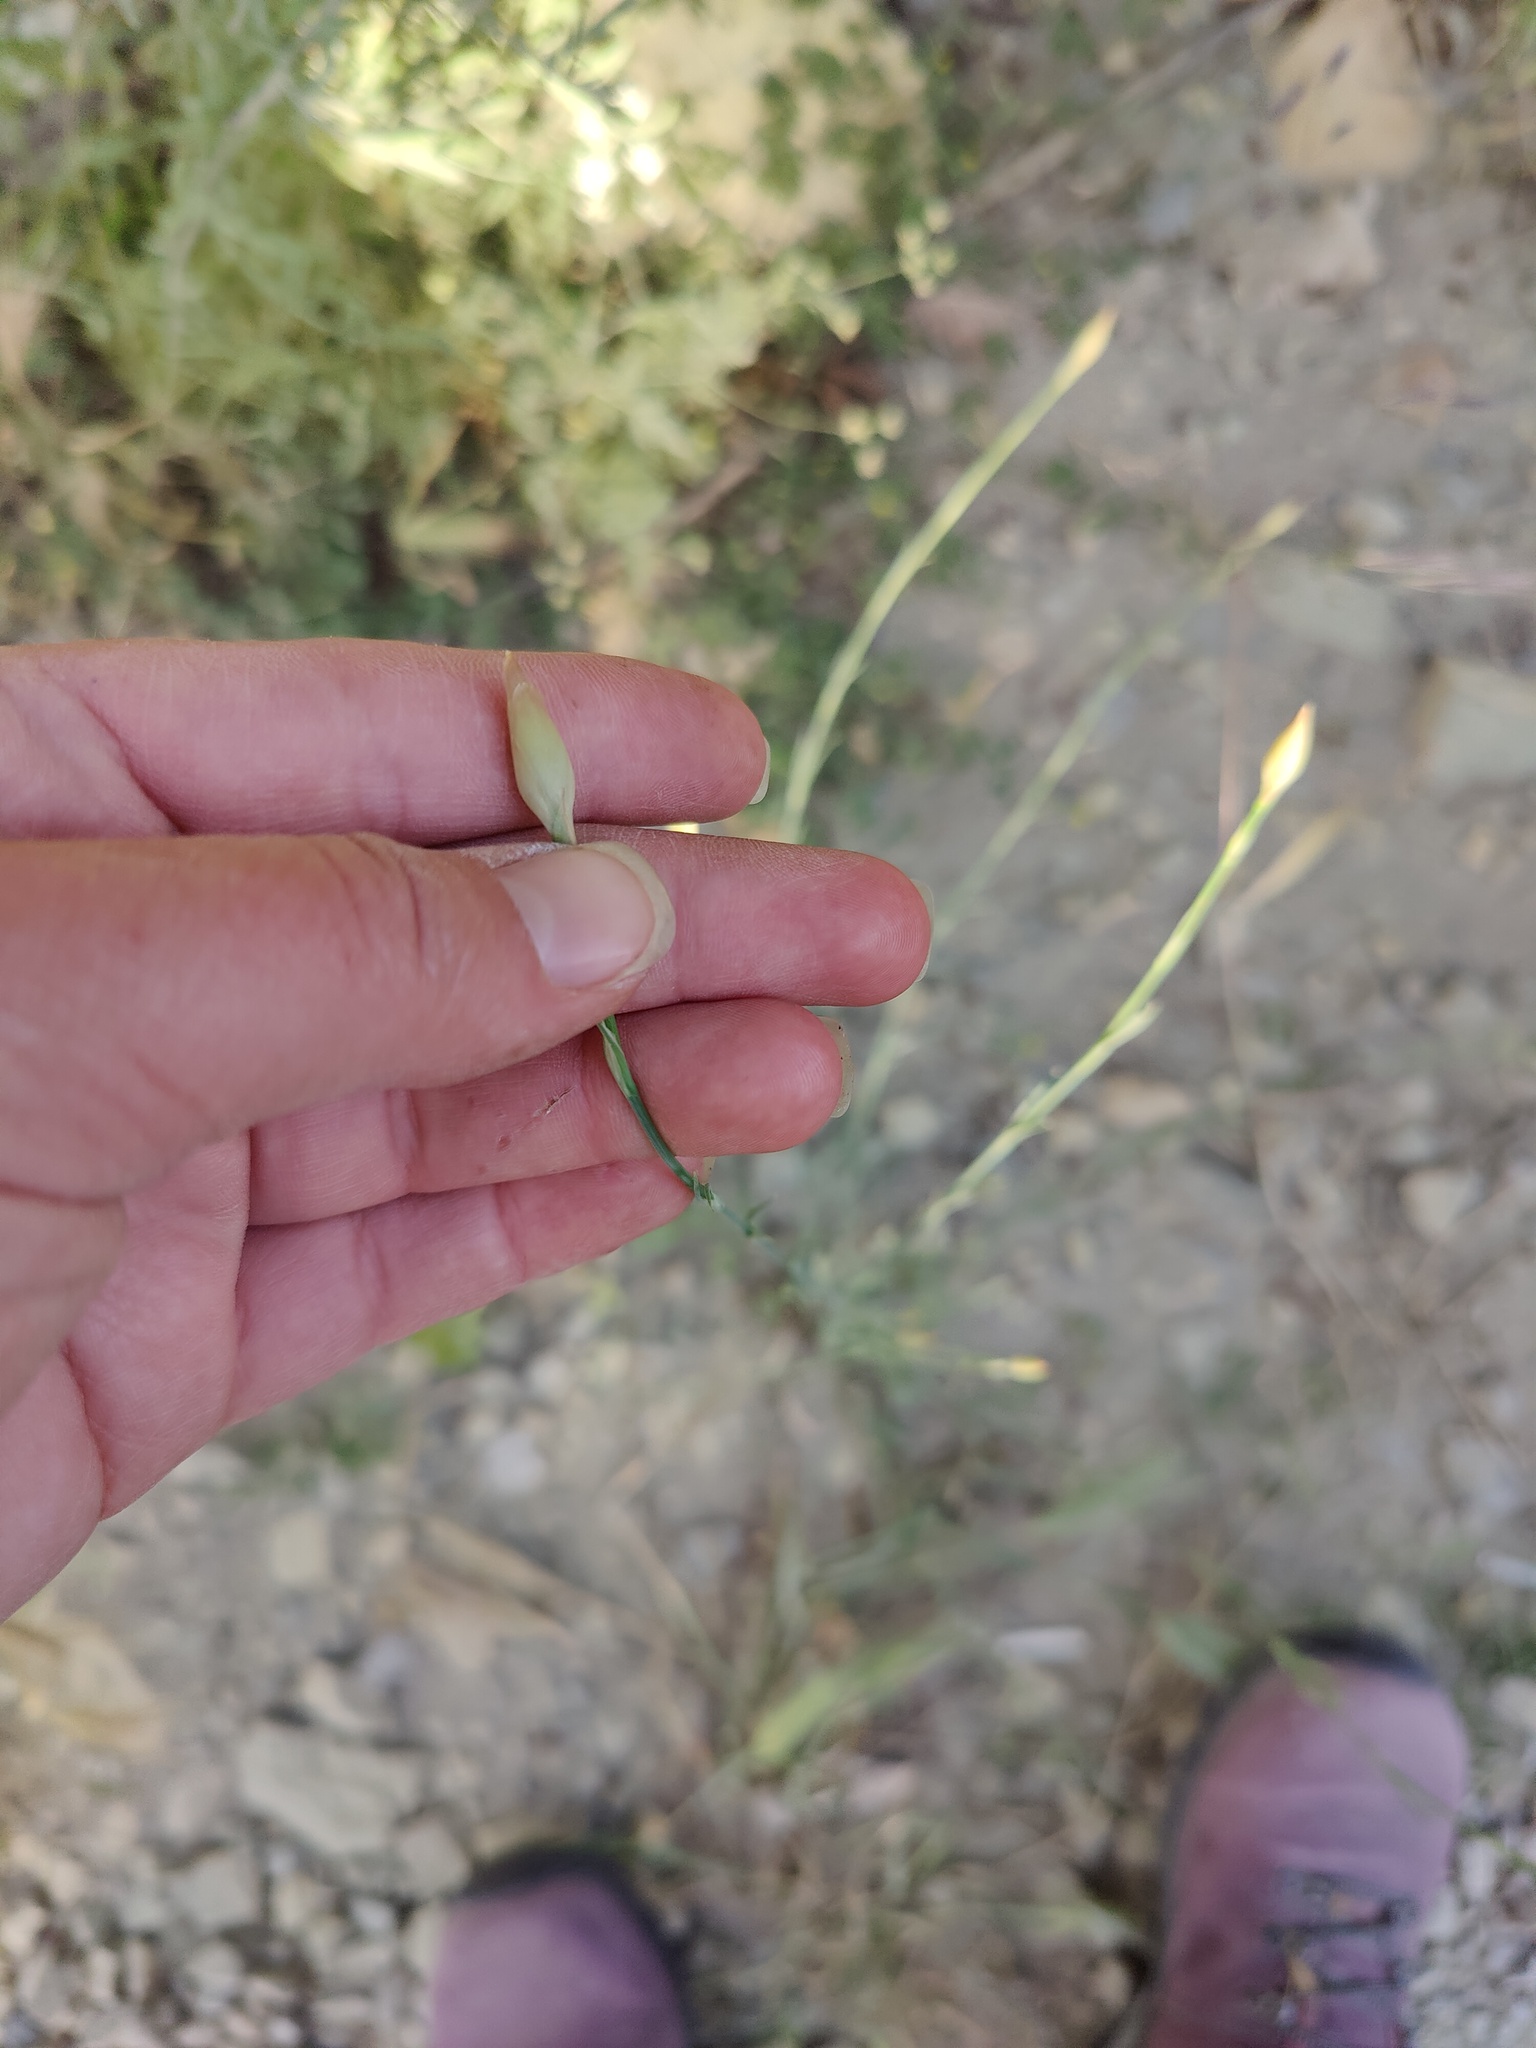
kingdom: Plantae
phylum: Tracheophyta
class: Magnoliopsida
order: Caryophyllales
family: Caryophyllaceae
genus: Petrorhagia
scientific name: Petrorhagia prolifera
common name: Proliferous pink
